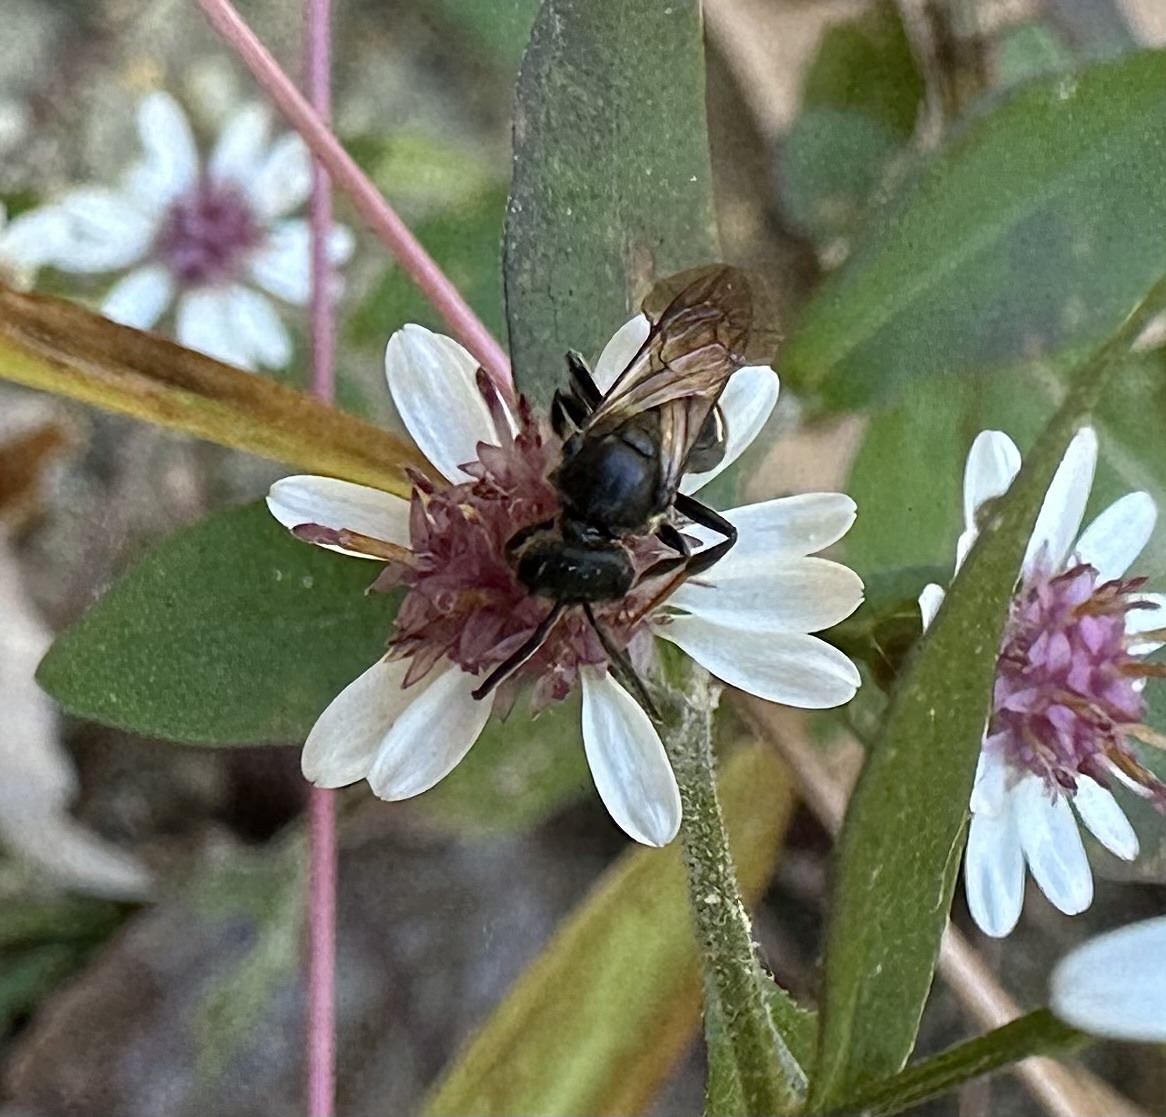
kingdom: Animalia
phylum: Arthropoda
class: Insecta
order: Hymenoptera
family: Halictidae
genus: Lasioglossum
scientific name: Lasioglossum fuscipenne
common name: Brown-winged sweat bee
